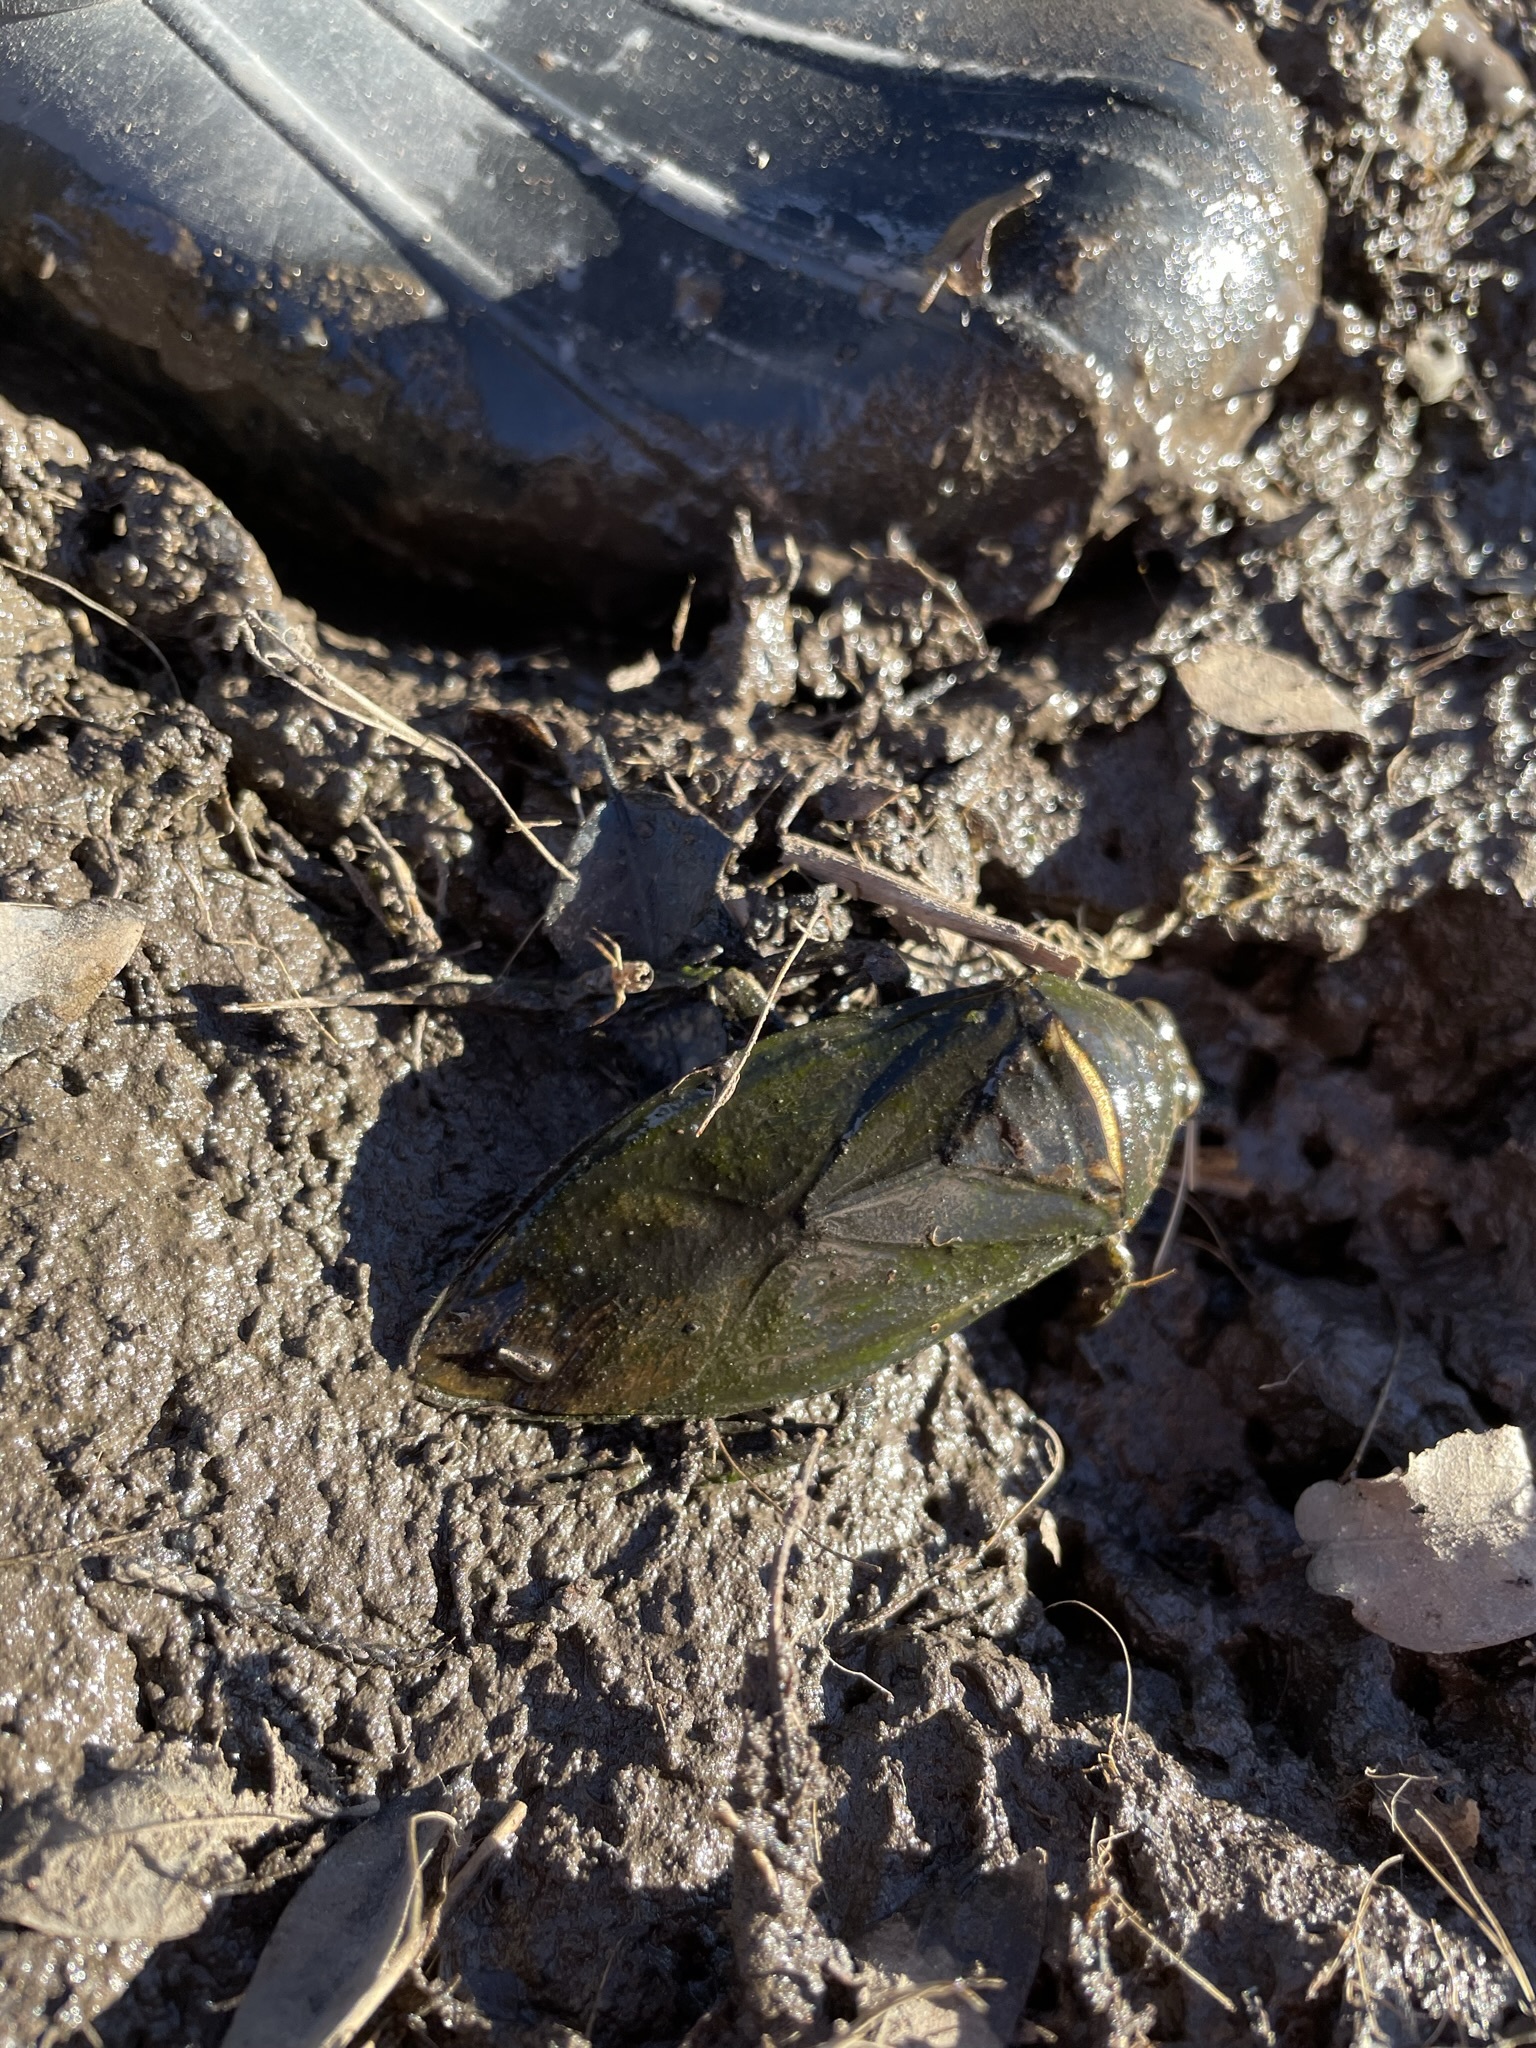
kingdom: Animalia
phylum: Arthropoda
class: Insecta
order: Hemiptera
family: Belostomatidae
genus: Lethocerus
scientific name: Lethocerus medius
